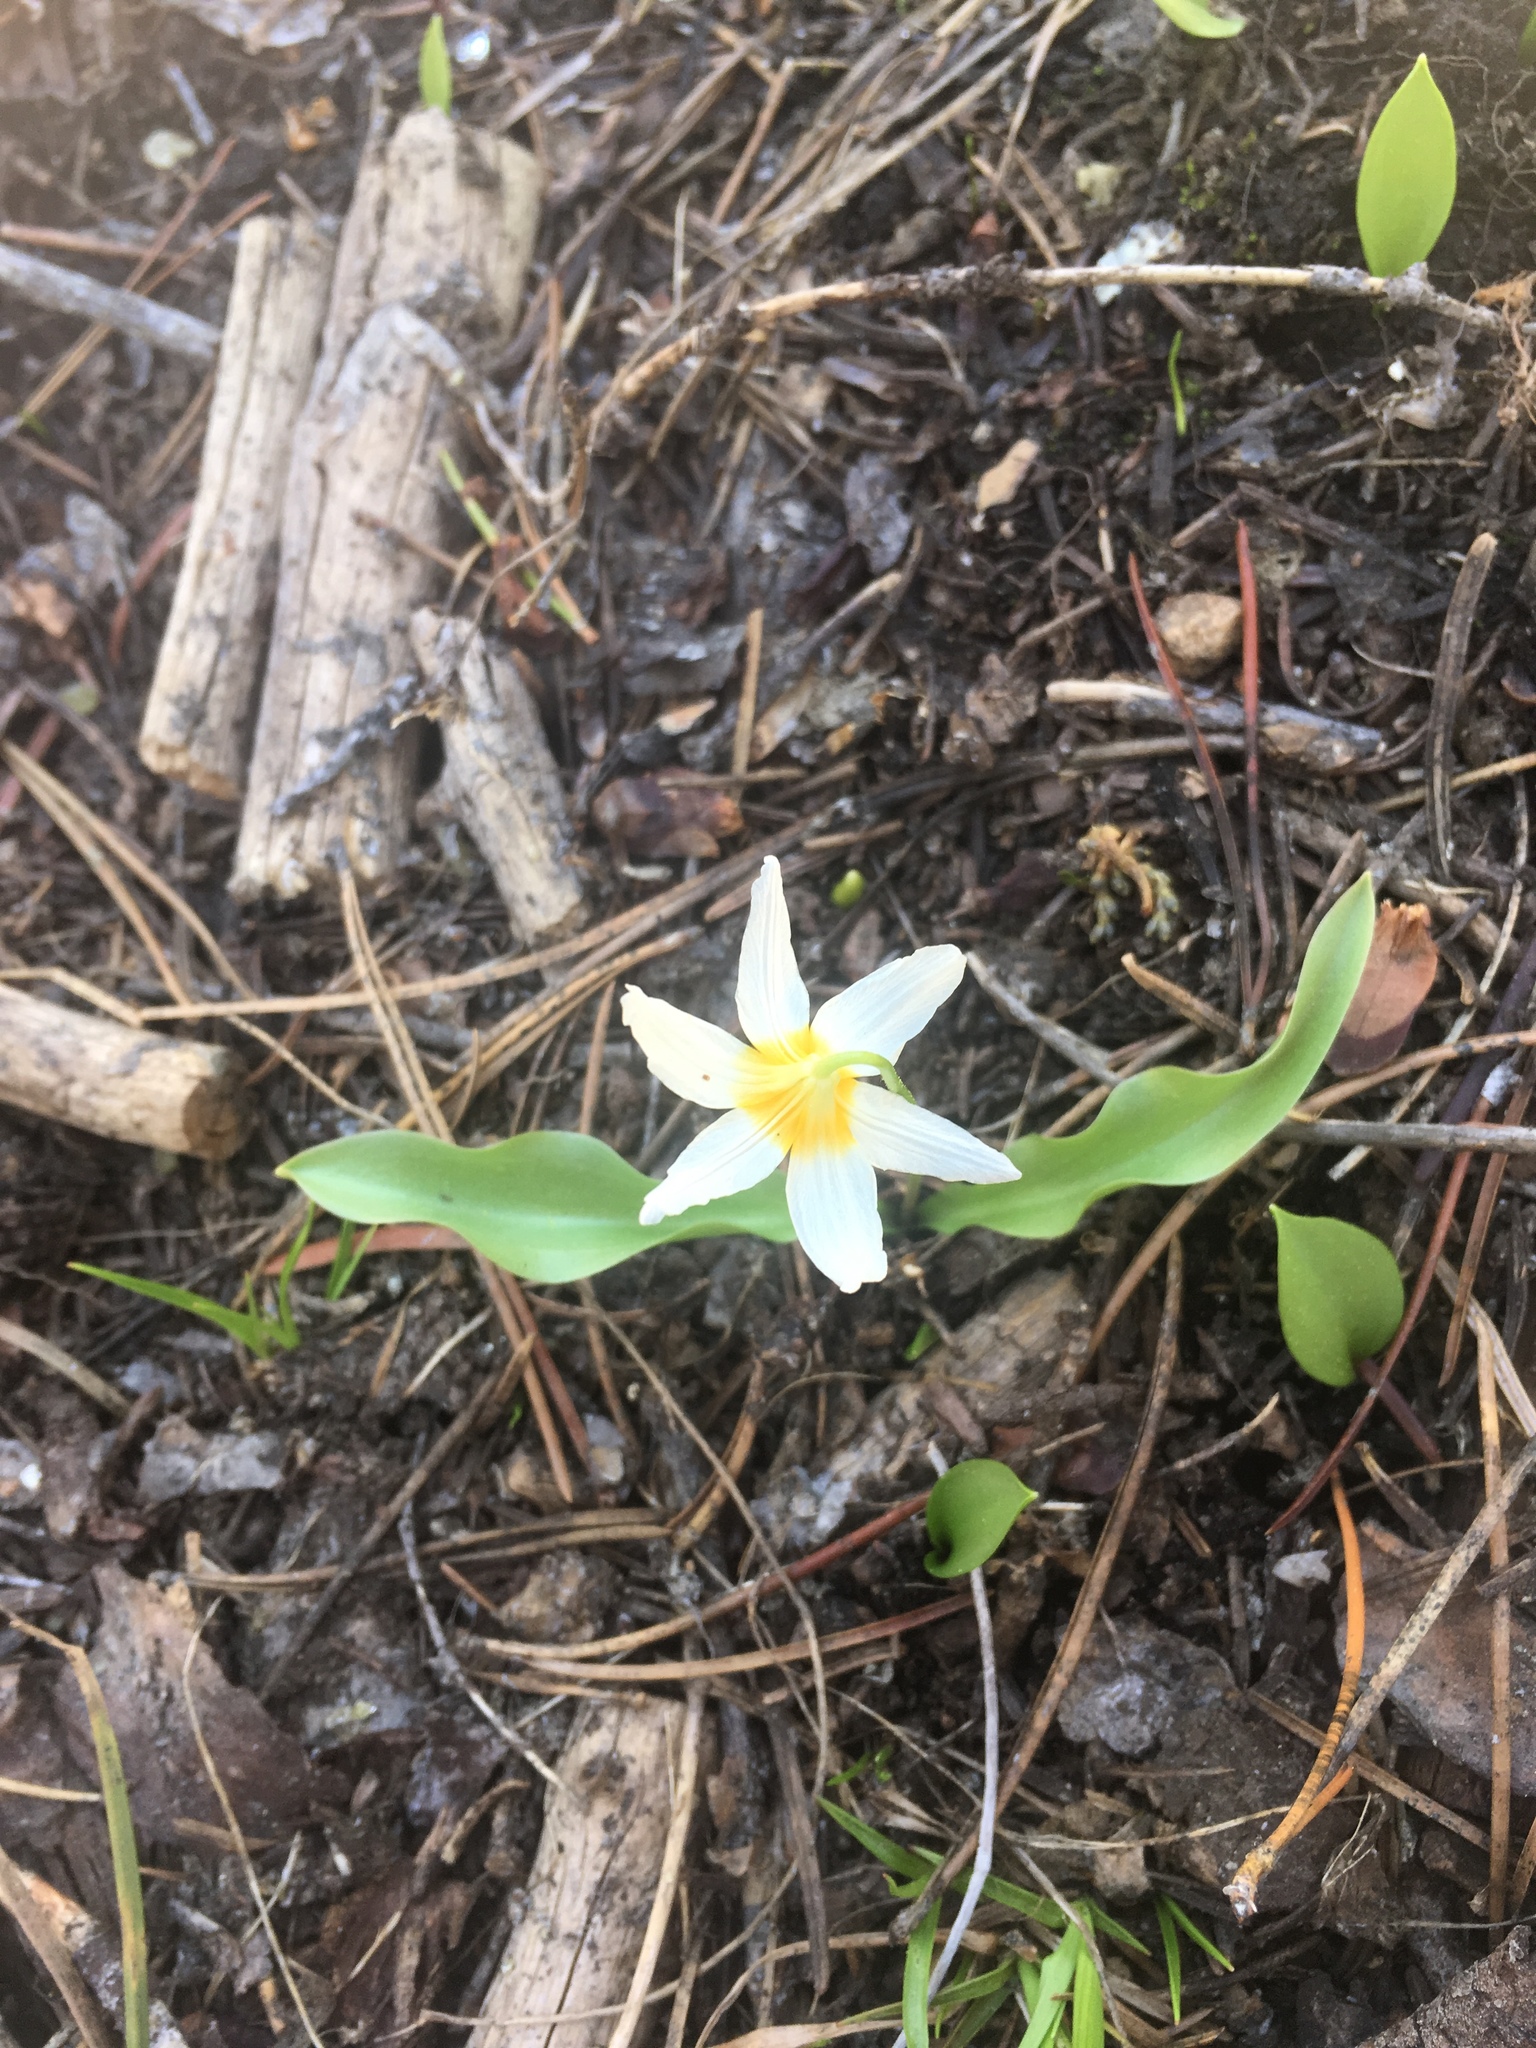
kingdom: Plantae
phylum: Tracheophyta
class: Liliopsida
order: Liliales
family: Liliaceae
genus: Erythronium
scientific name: Erythronium purpurascens
